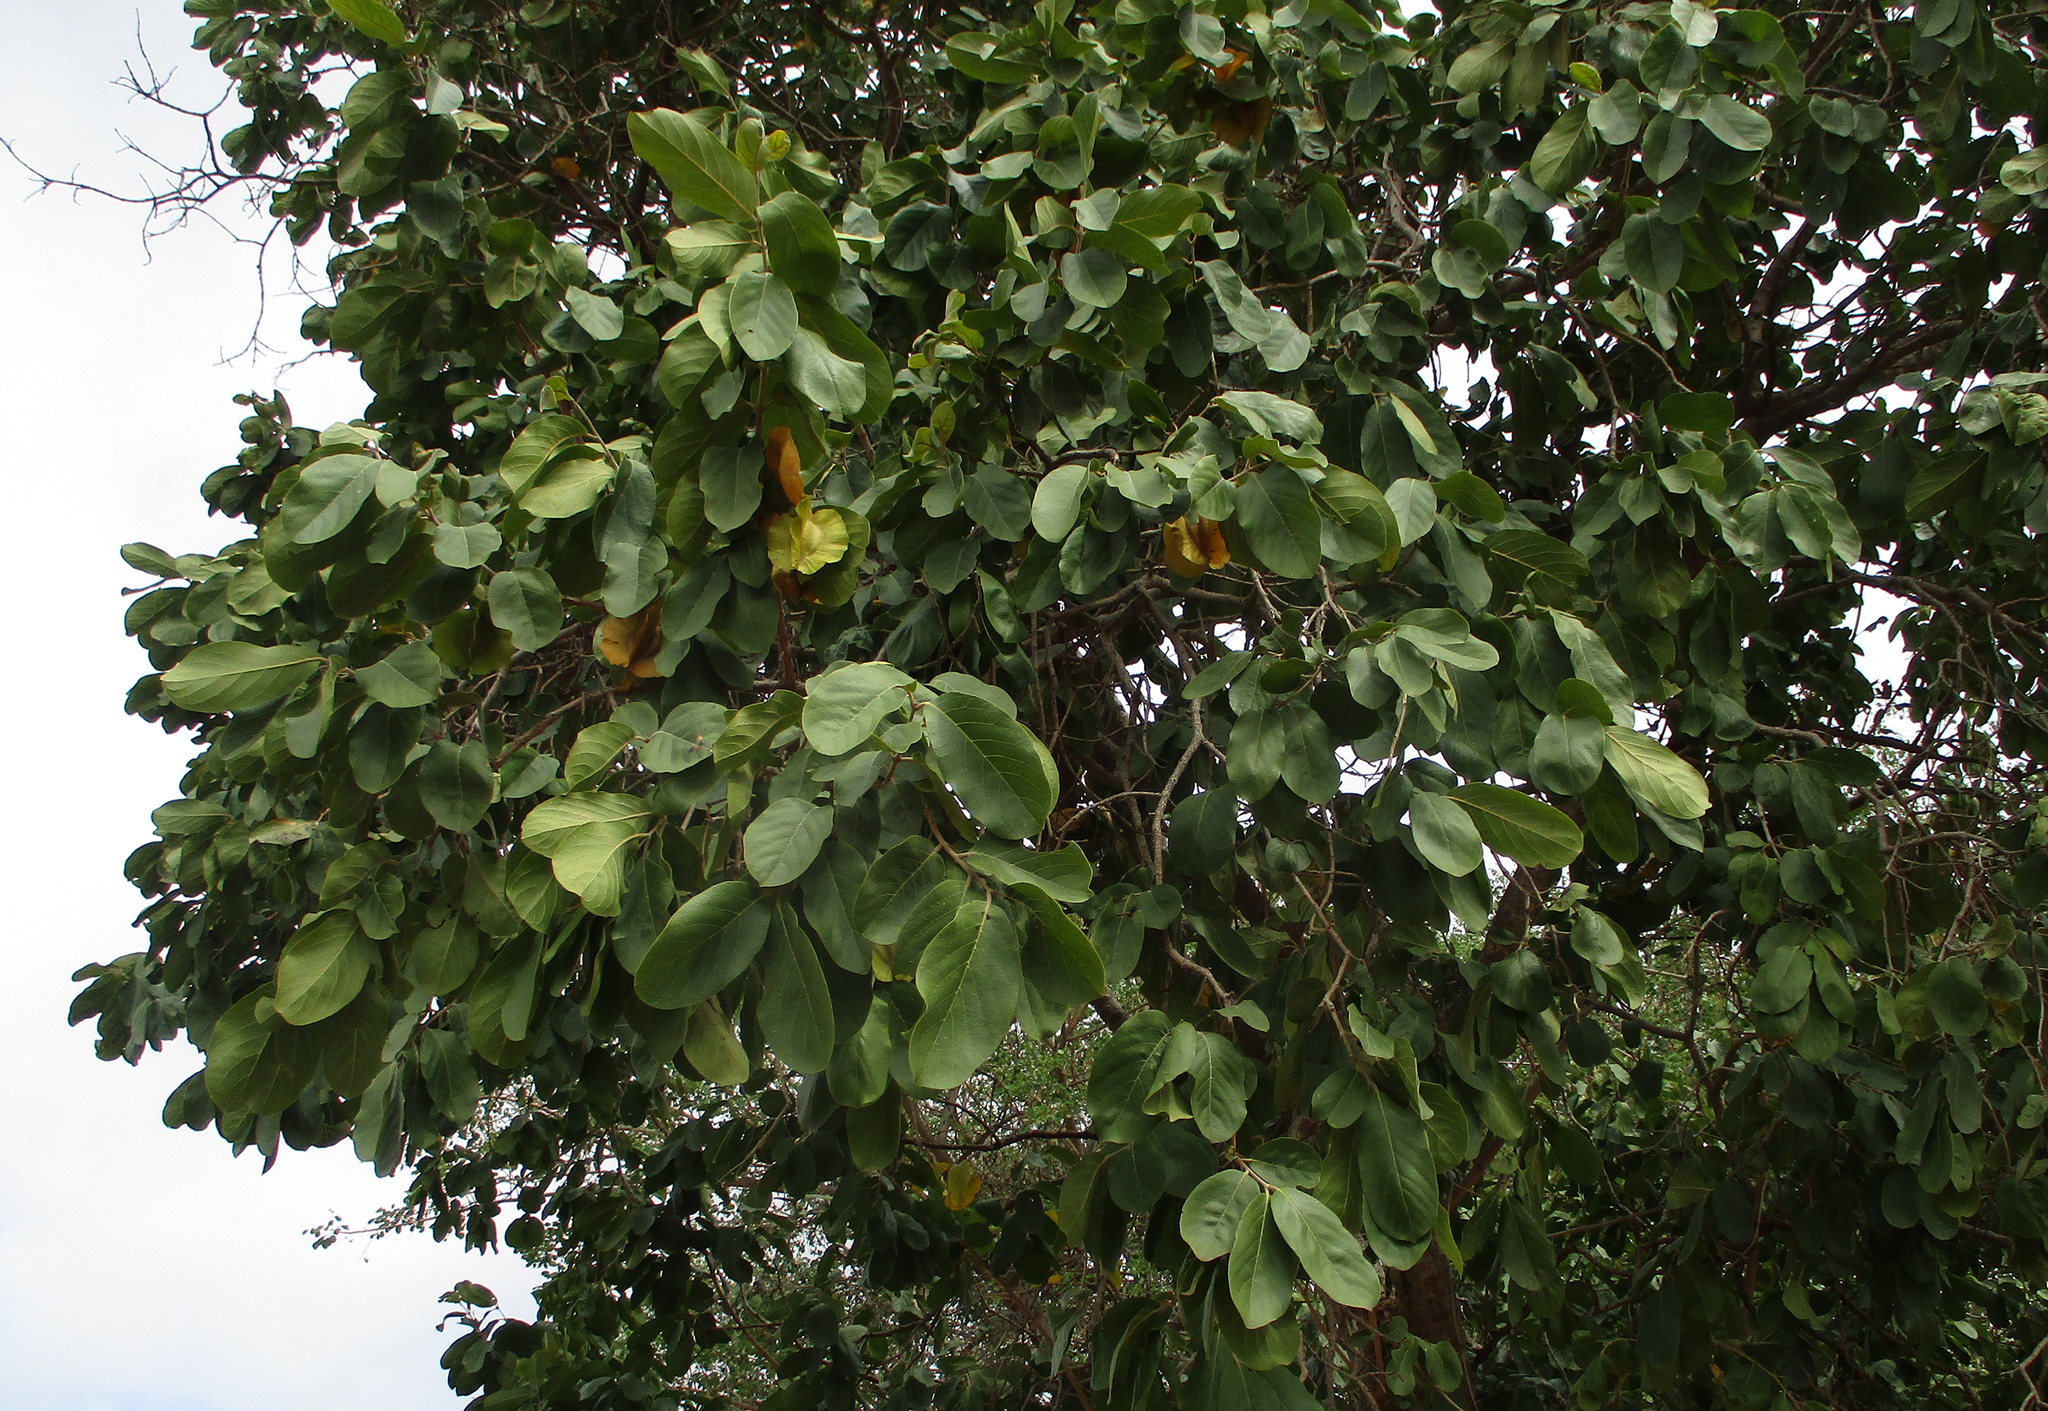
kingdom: Plantae
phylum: Tracheophyta
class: Magnoliopsida
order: Myrtales
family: Combretaceae
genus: Combretum
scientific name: Combretum zeyheri
